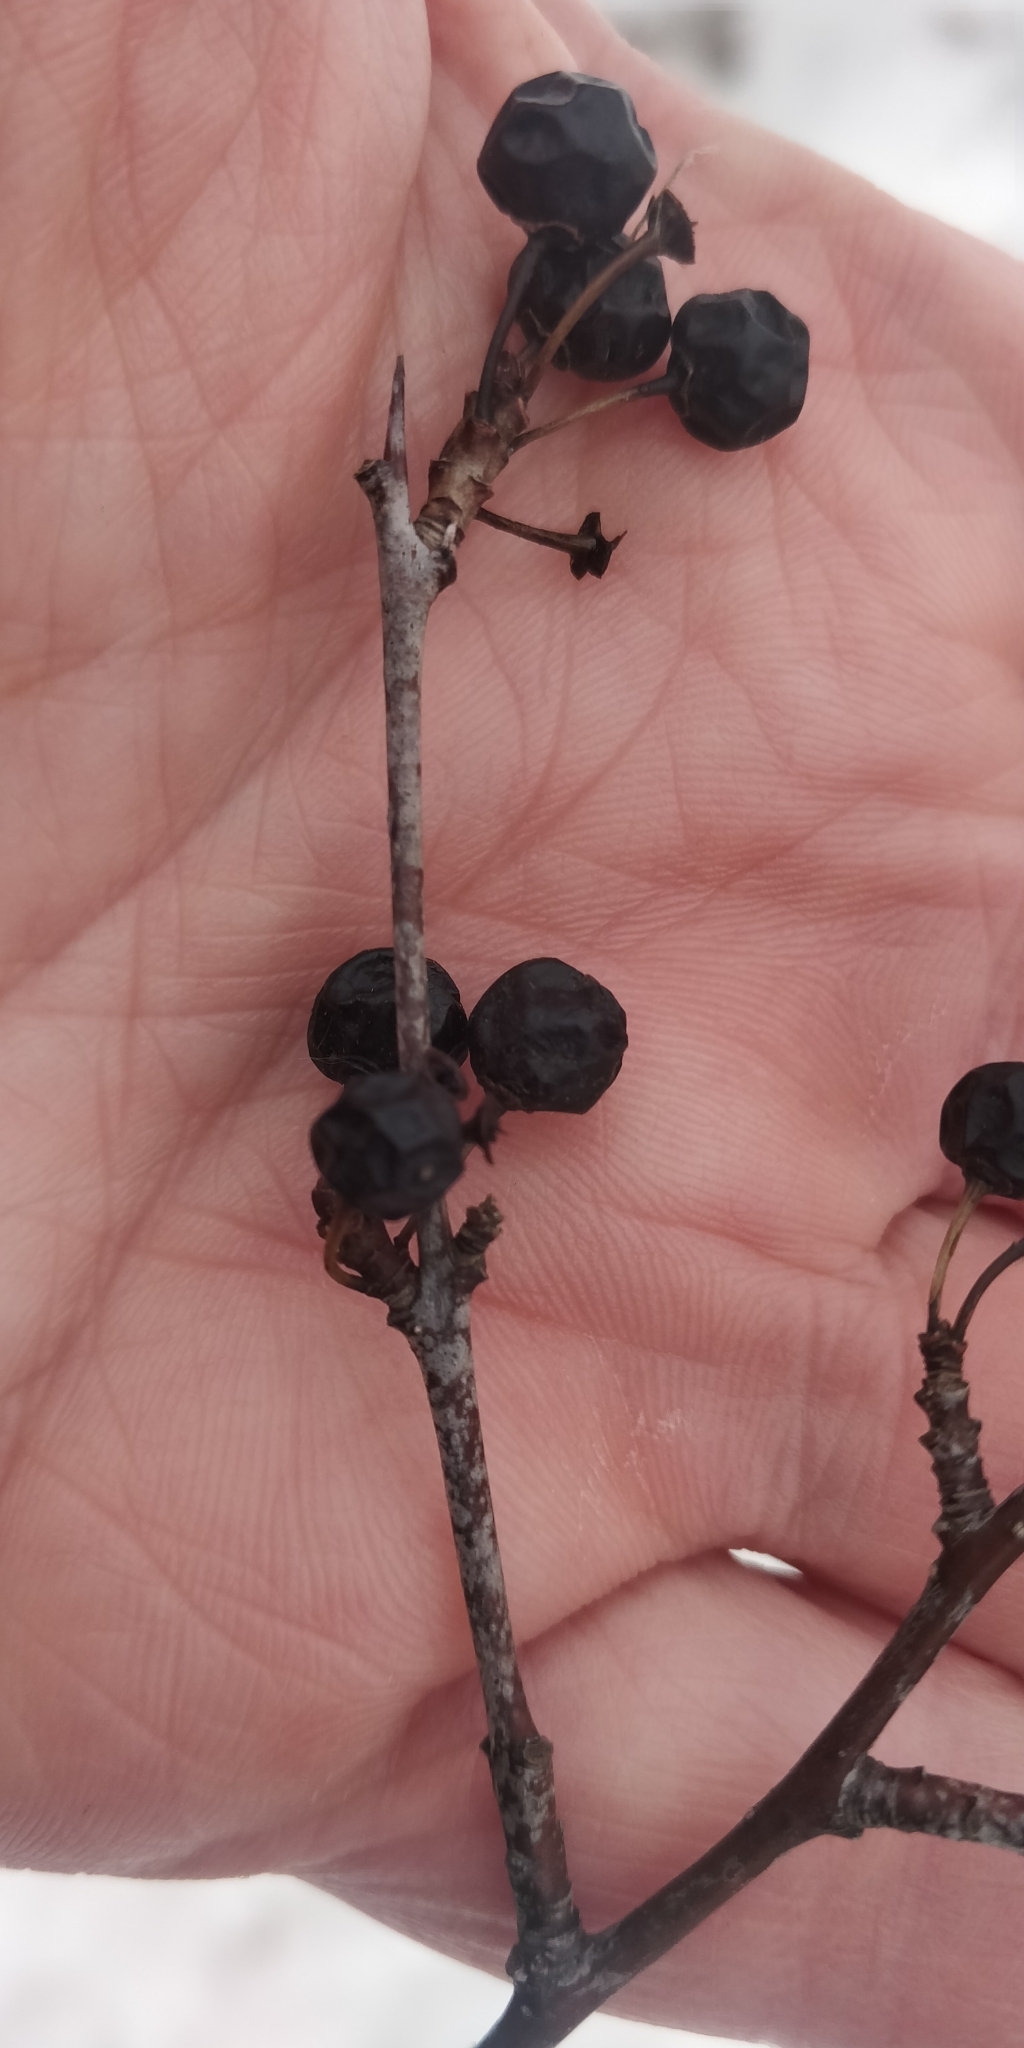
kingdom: Plantae
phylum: Tracheophyta
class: Magnoliopsida
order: Rosales
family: Rhamnaceae
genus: Rhamnus
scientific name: Rhamnus cathartica
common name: Common buckthorn
